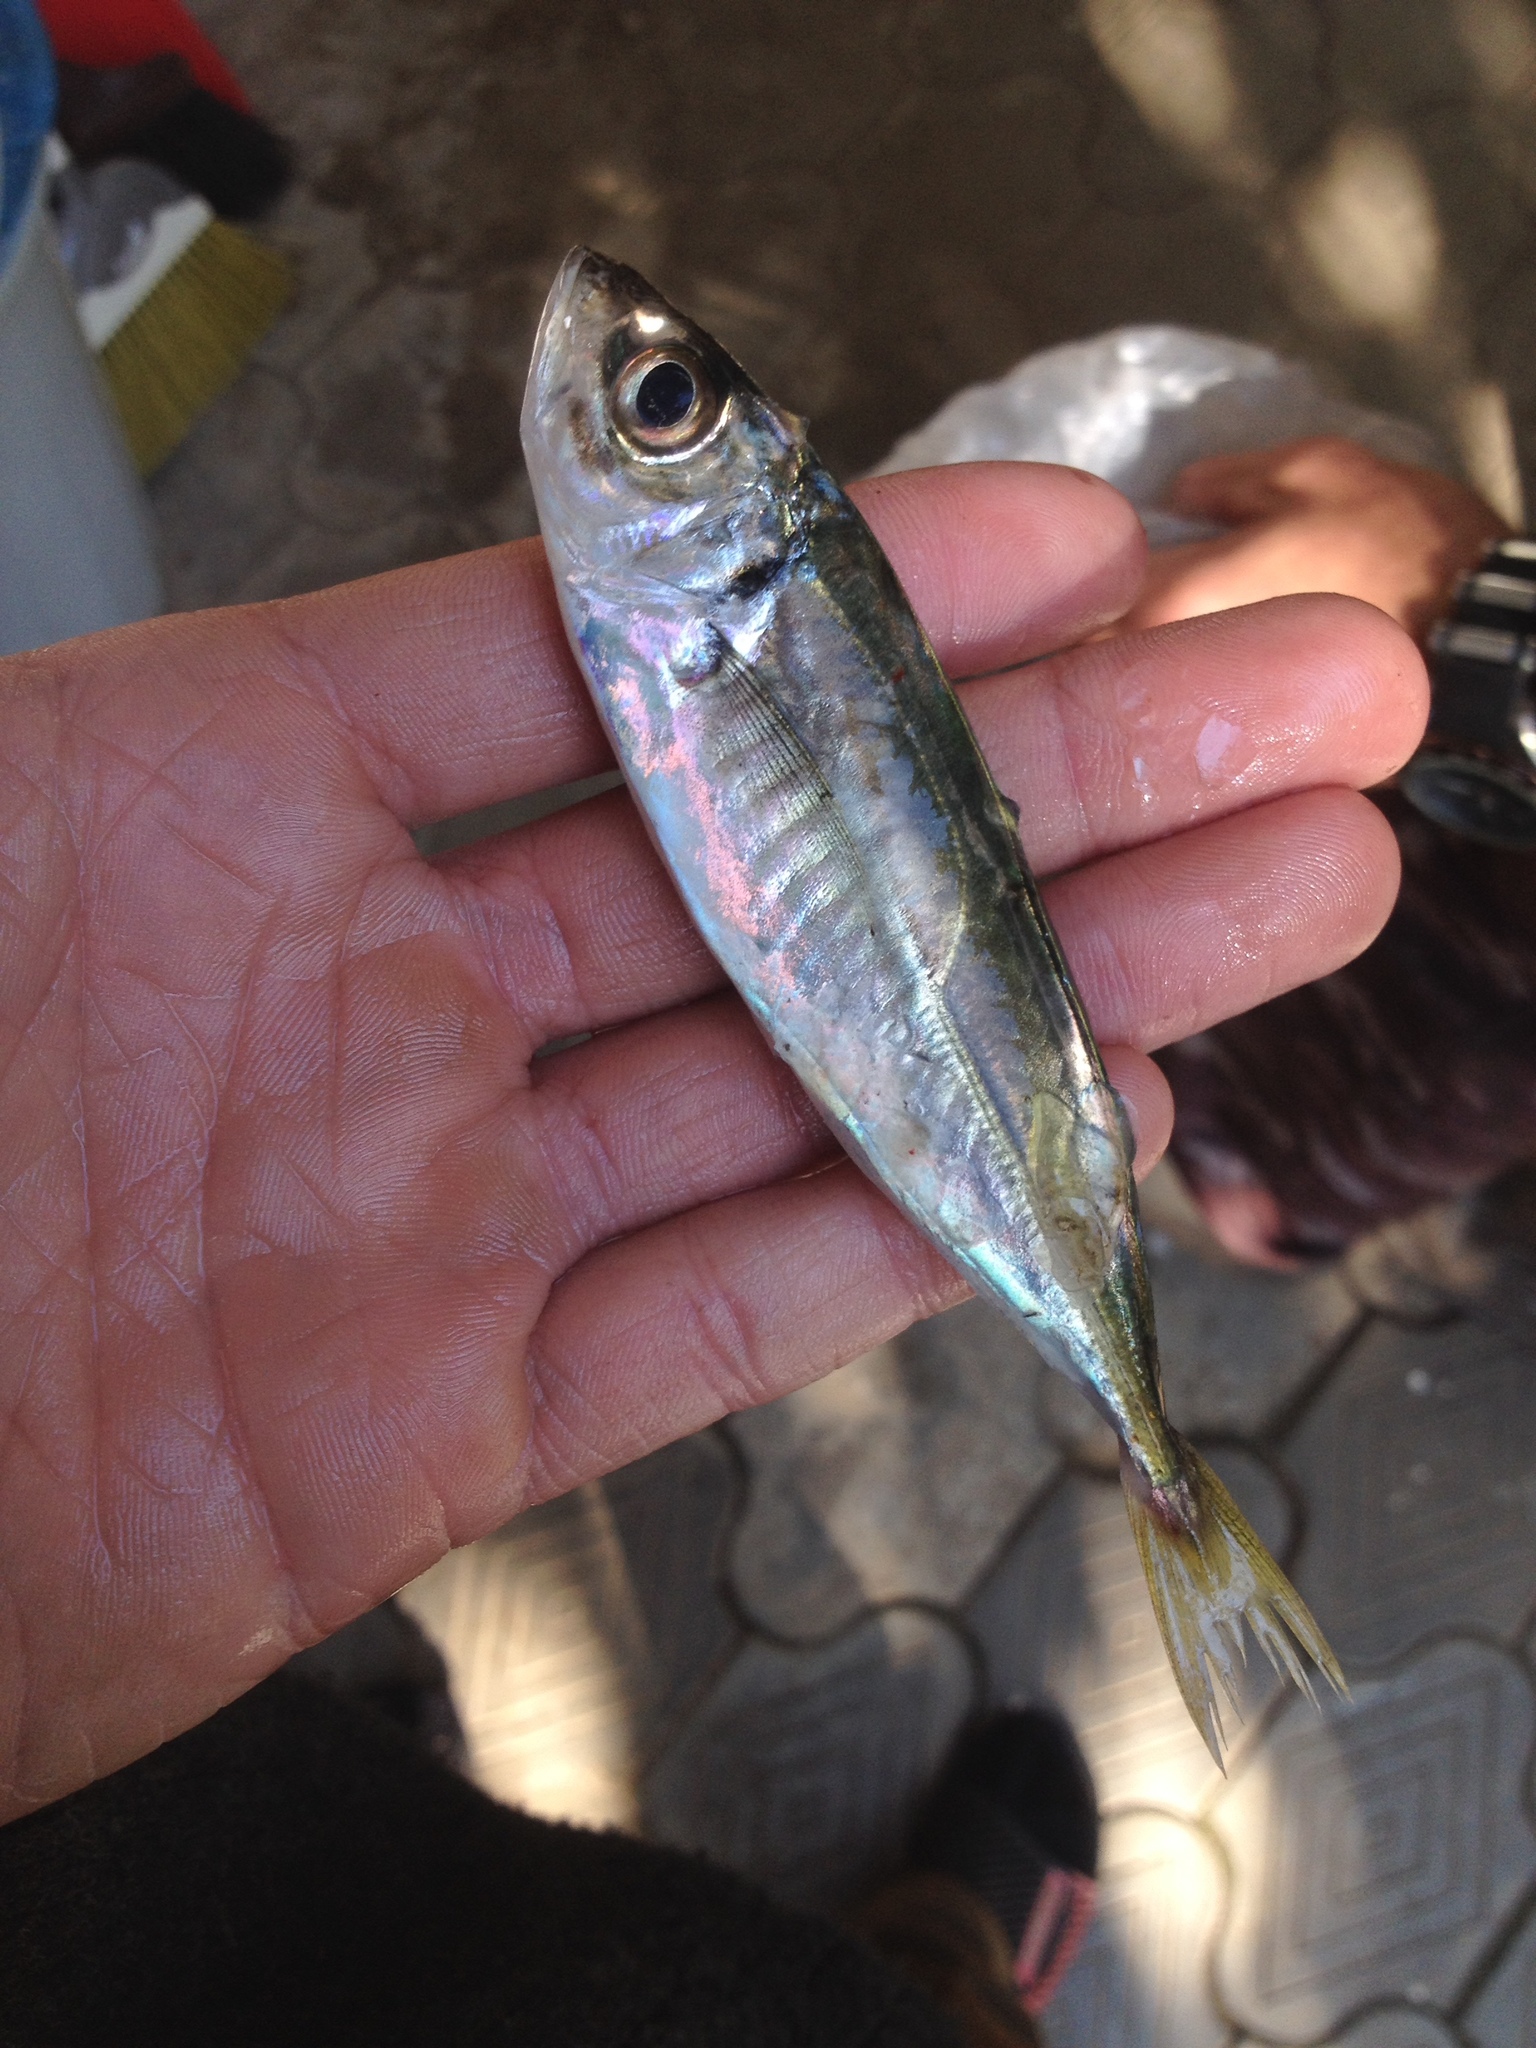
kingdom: Animalia
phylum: Chordata
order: Perciformes
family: Carangidae
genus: Trachurus
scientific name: Trachurus trachurus
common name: Horse mackerel
